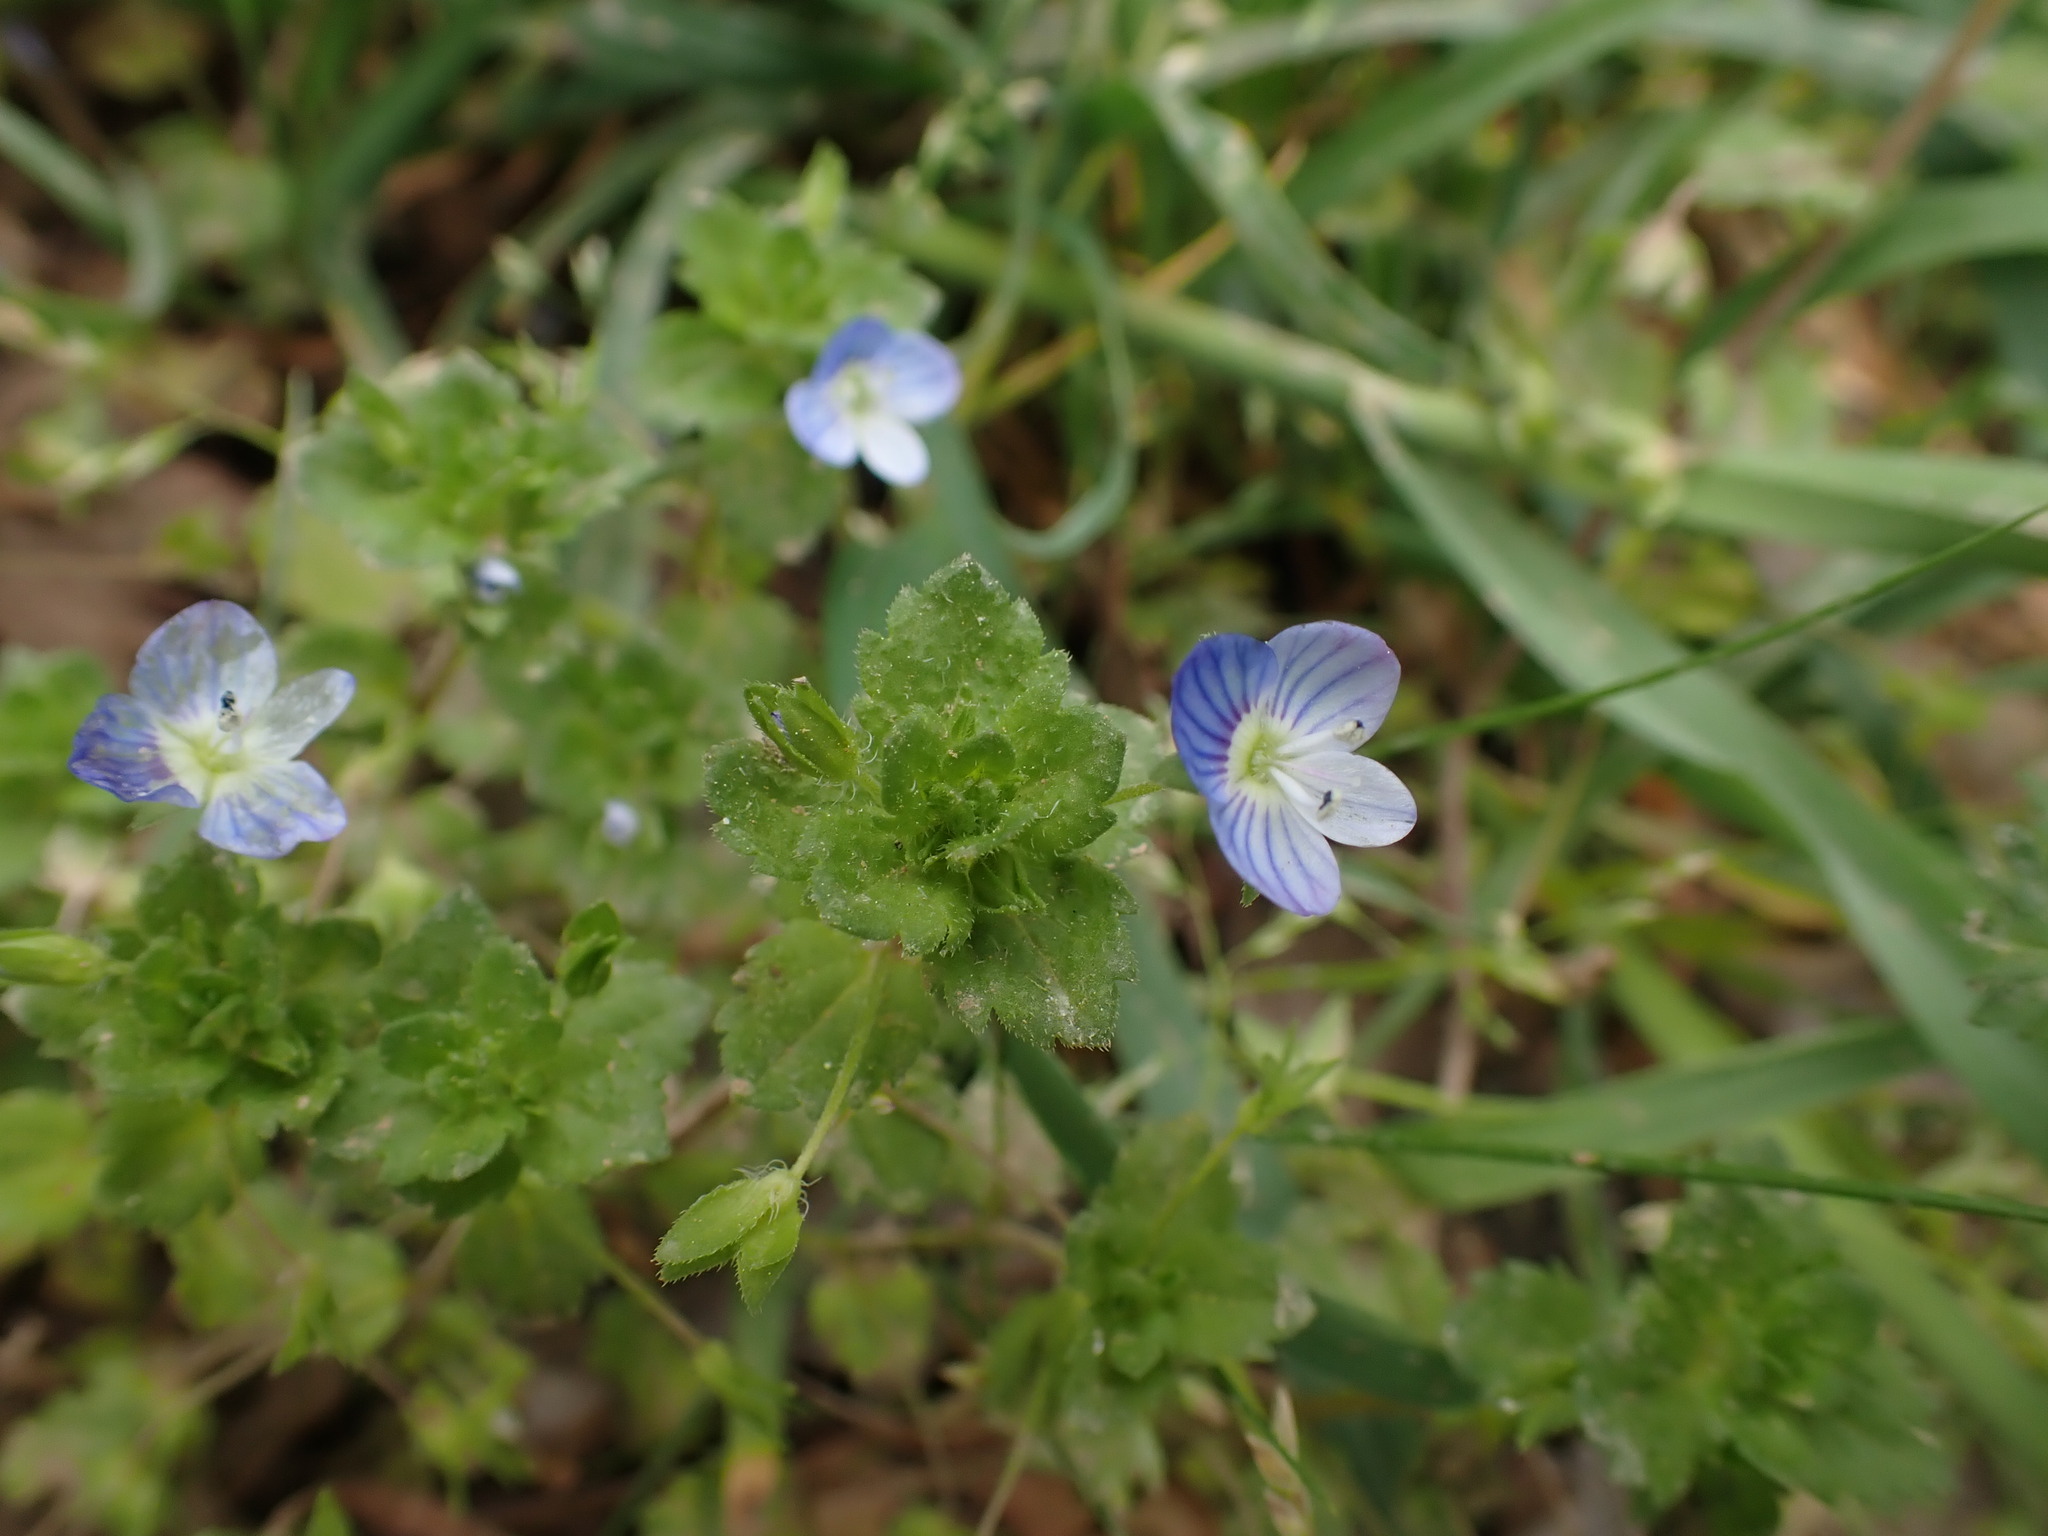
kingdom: Plantae
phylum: Tracheophyta
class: Magnoliopsida
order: Lamiales
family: Plantaginaceae
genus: Veronica
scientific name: Veronica persica
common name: Common field-speedwell
